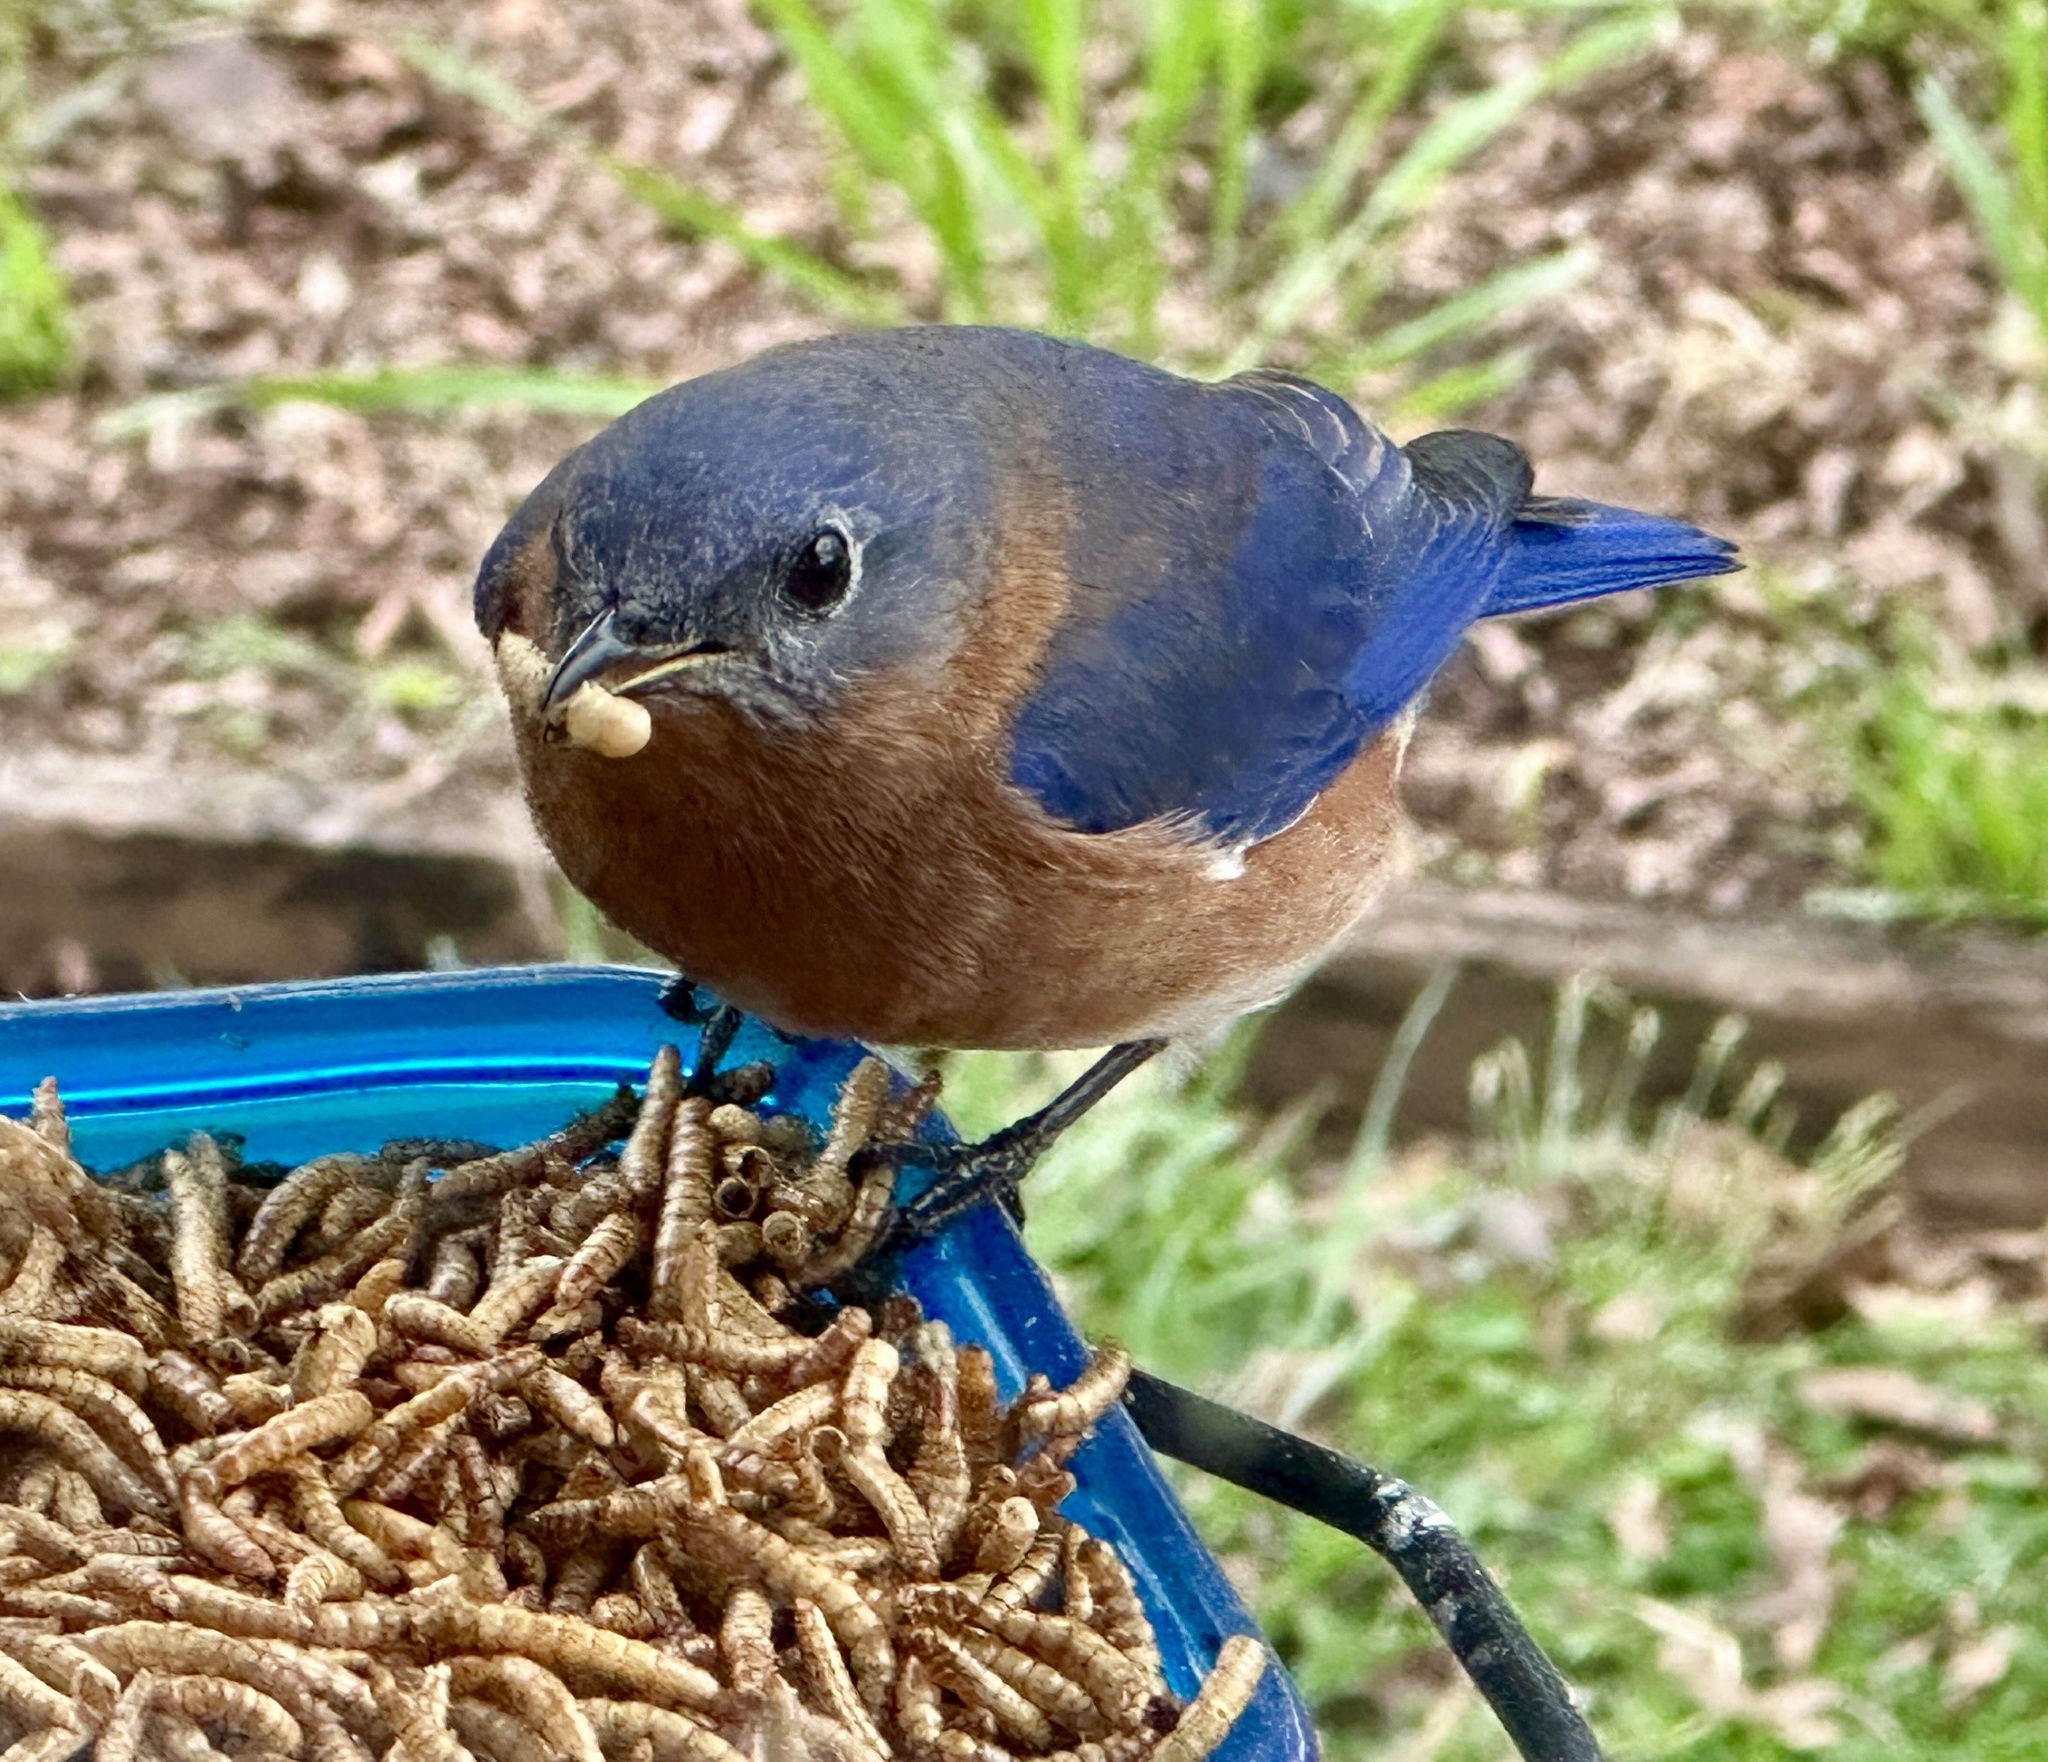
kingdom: Animalia
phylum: Chordata
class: Aves
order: Passeriformes
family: Turdidae
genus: Sialia
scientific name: Sialia sialis
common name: Eastern bluebird
